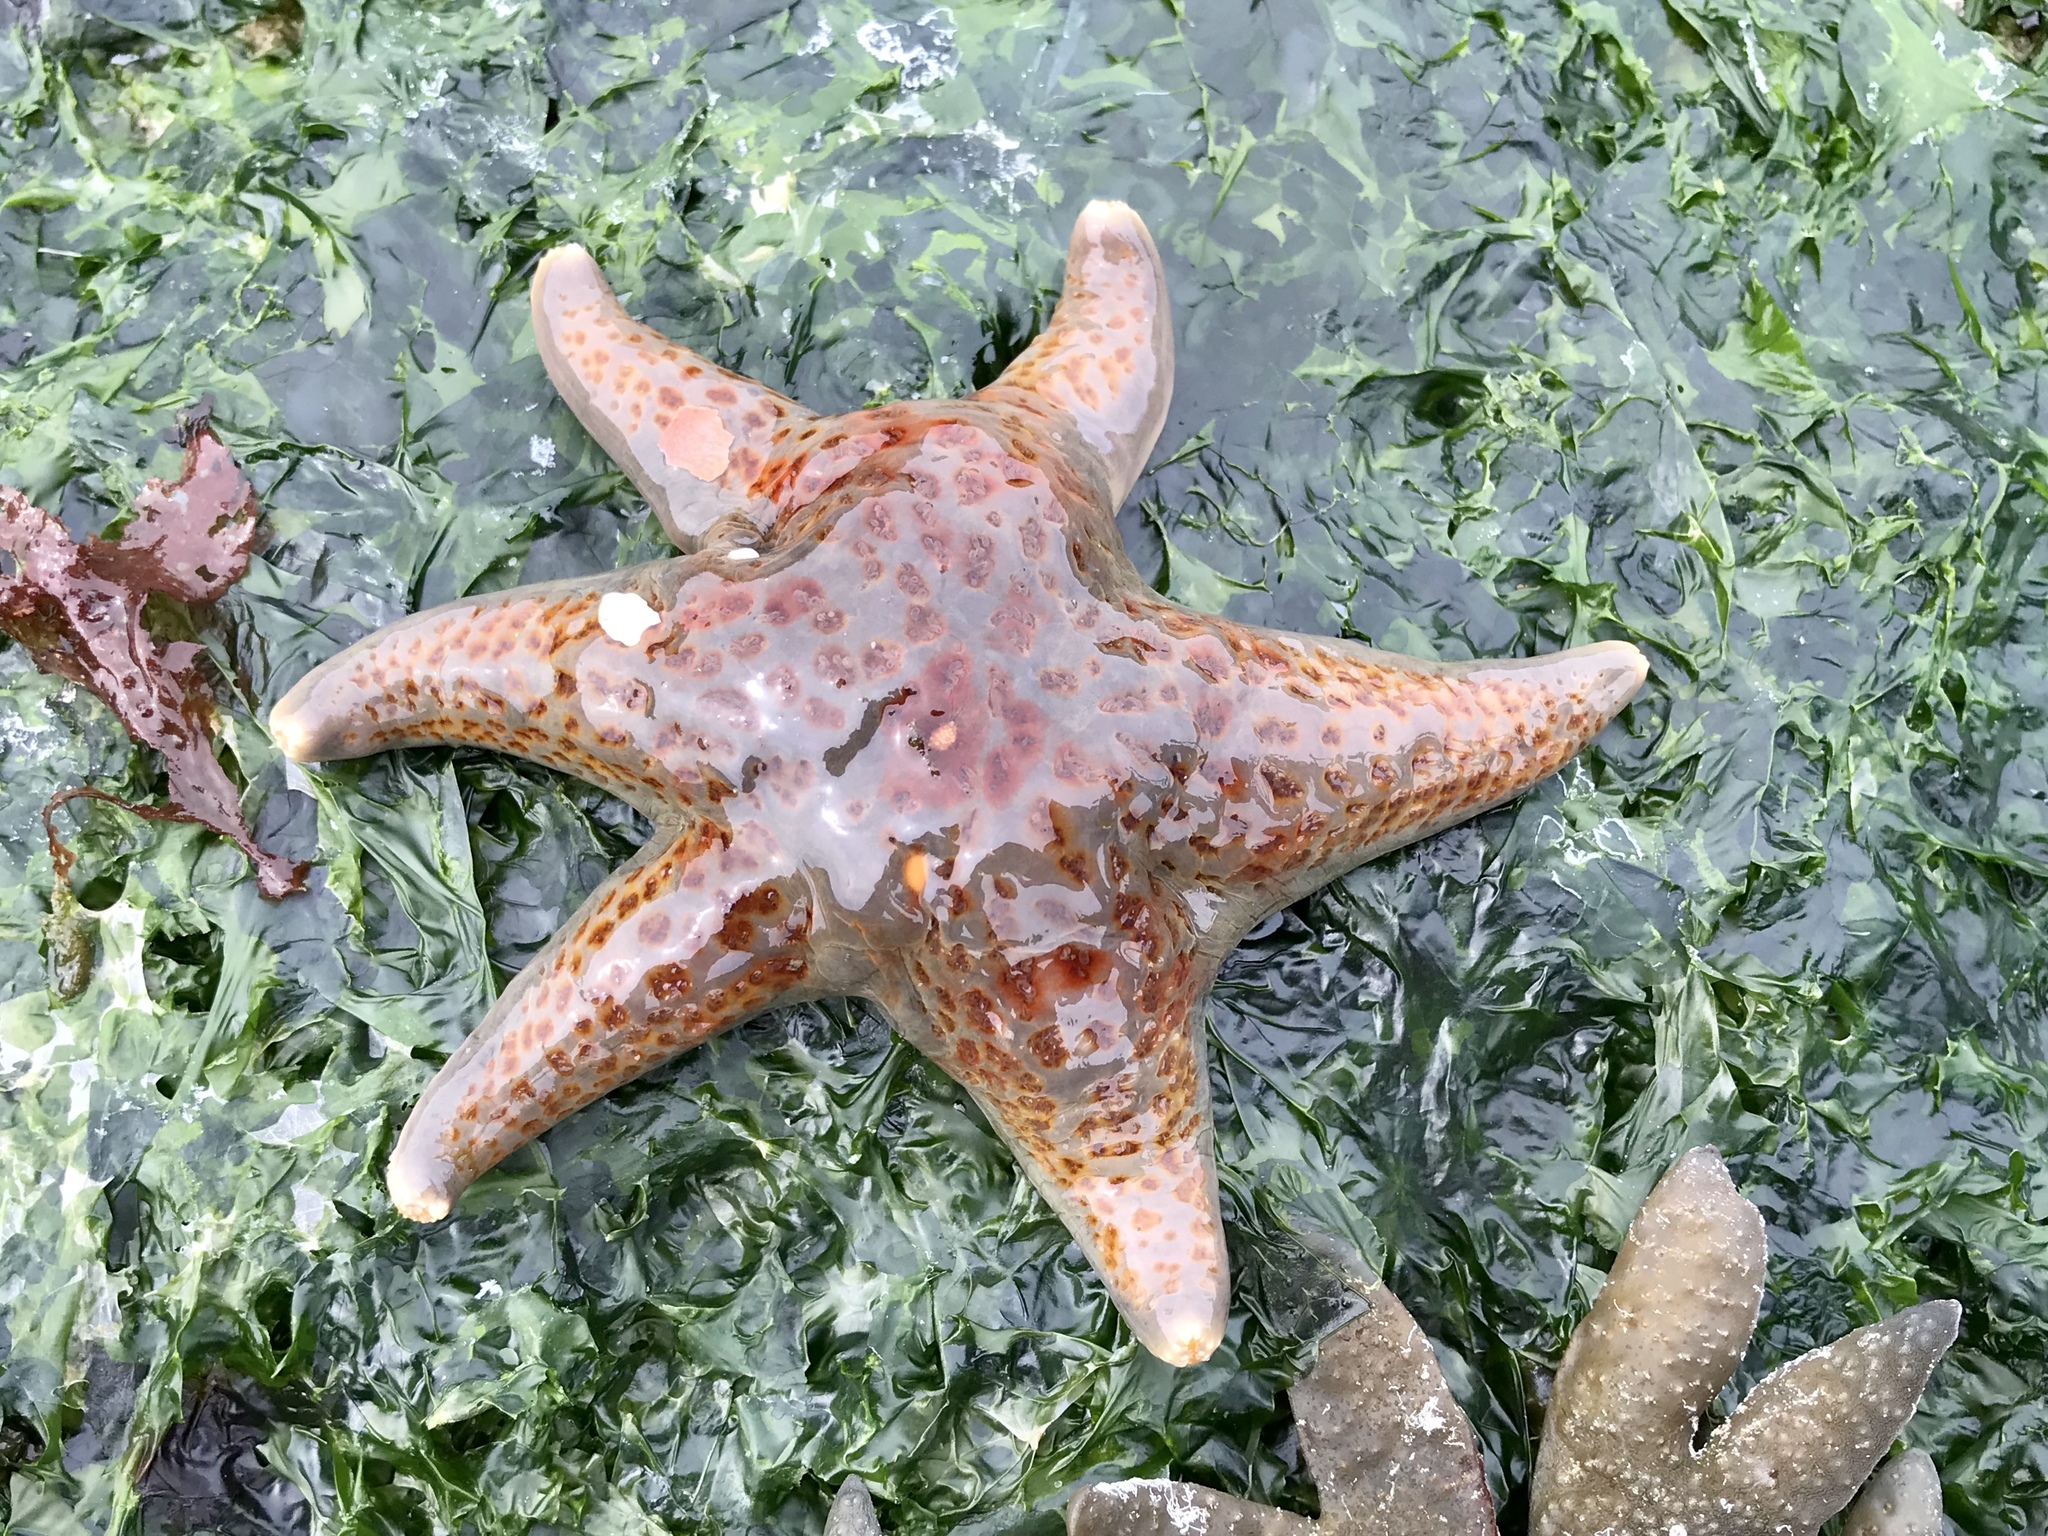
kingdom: Animalia
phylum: Echinodermata
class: Asteroidea
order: Valvatida
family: Asteropseidae
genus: Dermasterias
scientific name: Dermasterias imbricata
